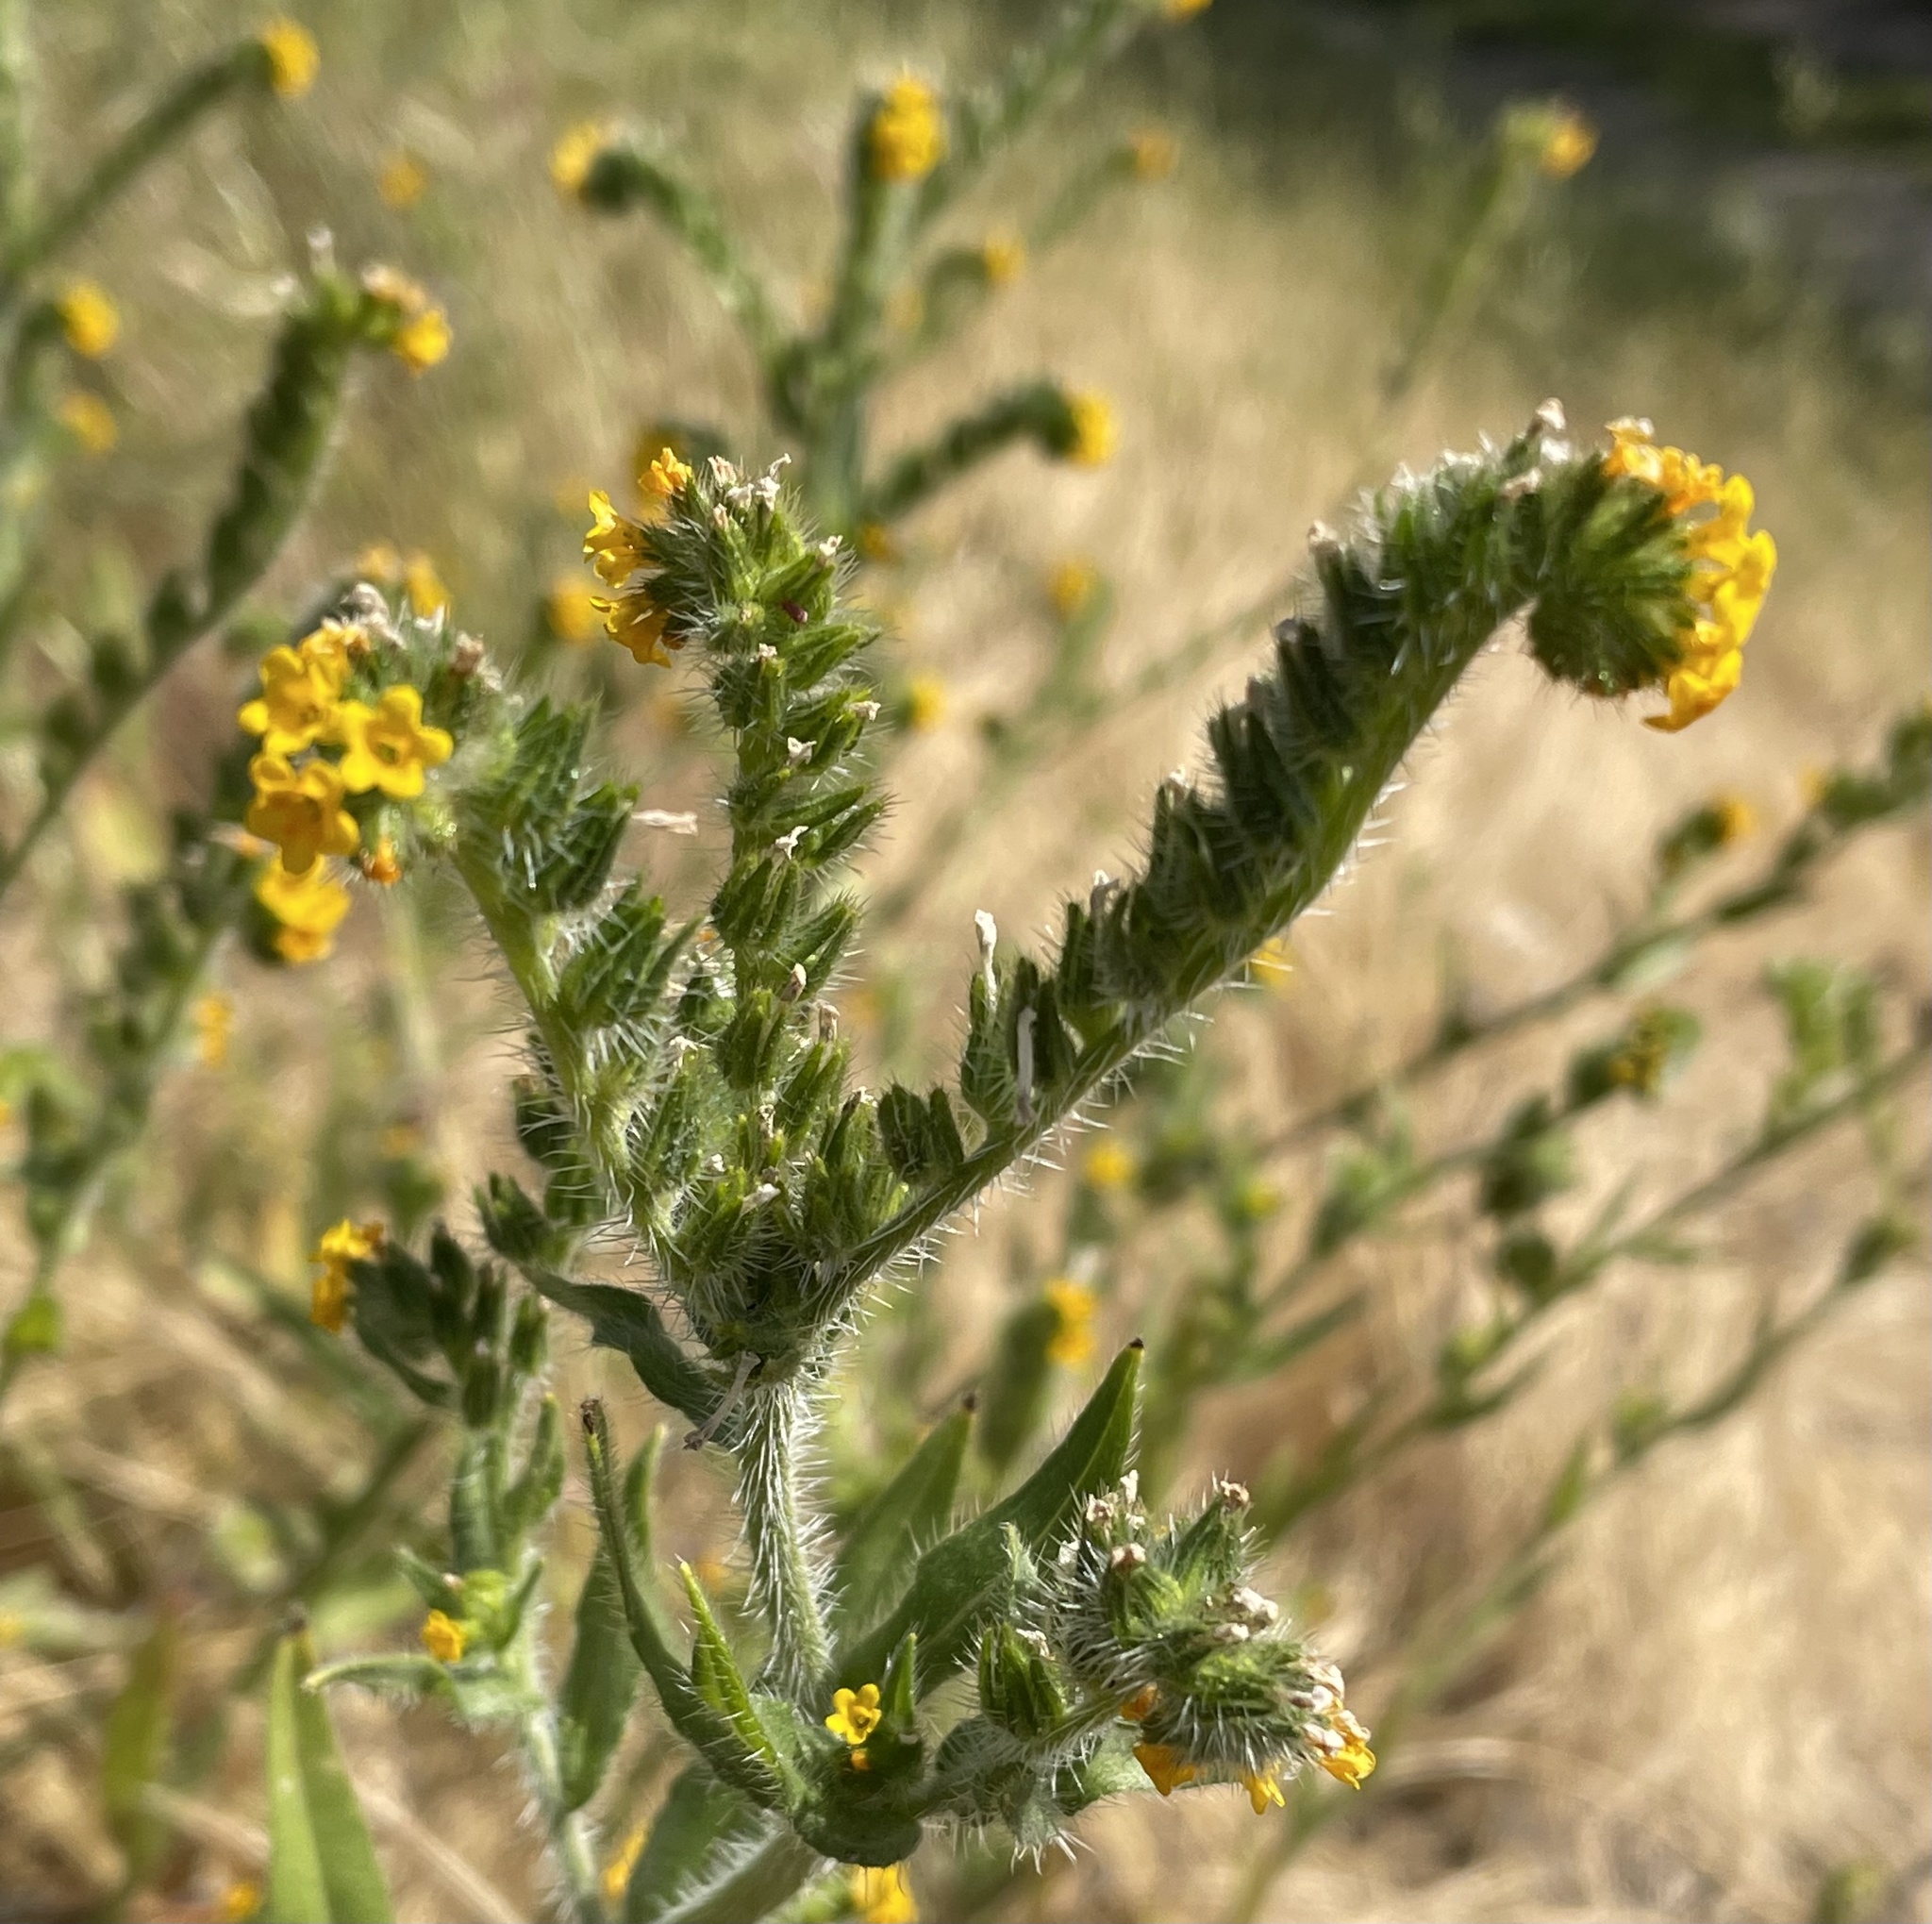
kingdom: Plantae
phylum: Tracheophyta
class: Magnoliopsida
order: Boraginales
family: Boraginaceae
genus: Amsinckia
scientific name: Amsinckia menziesii
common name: Menzies' fiddleneck
